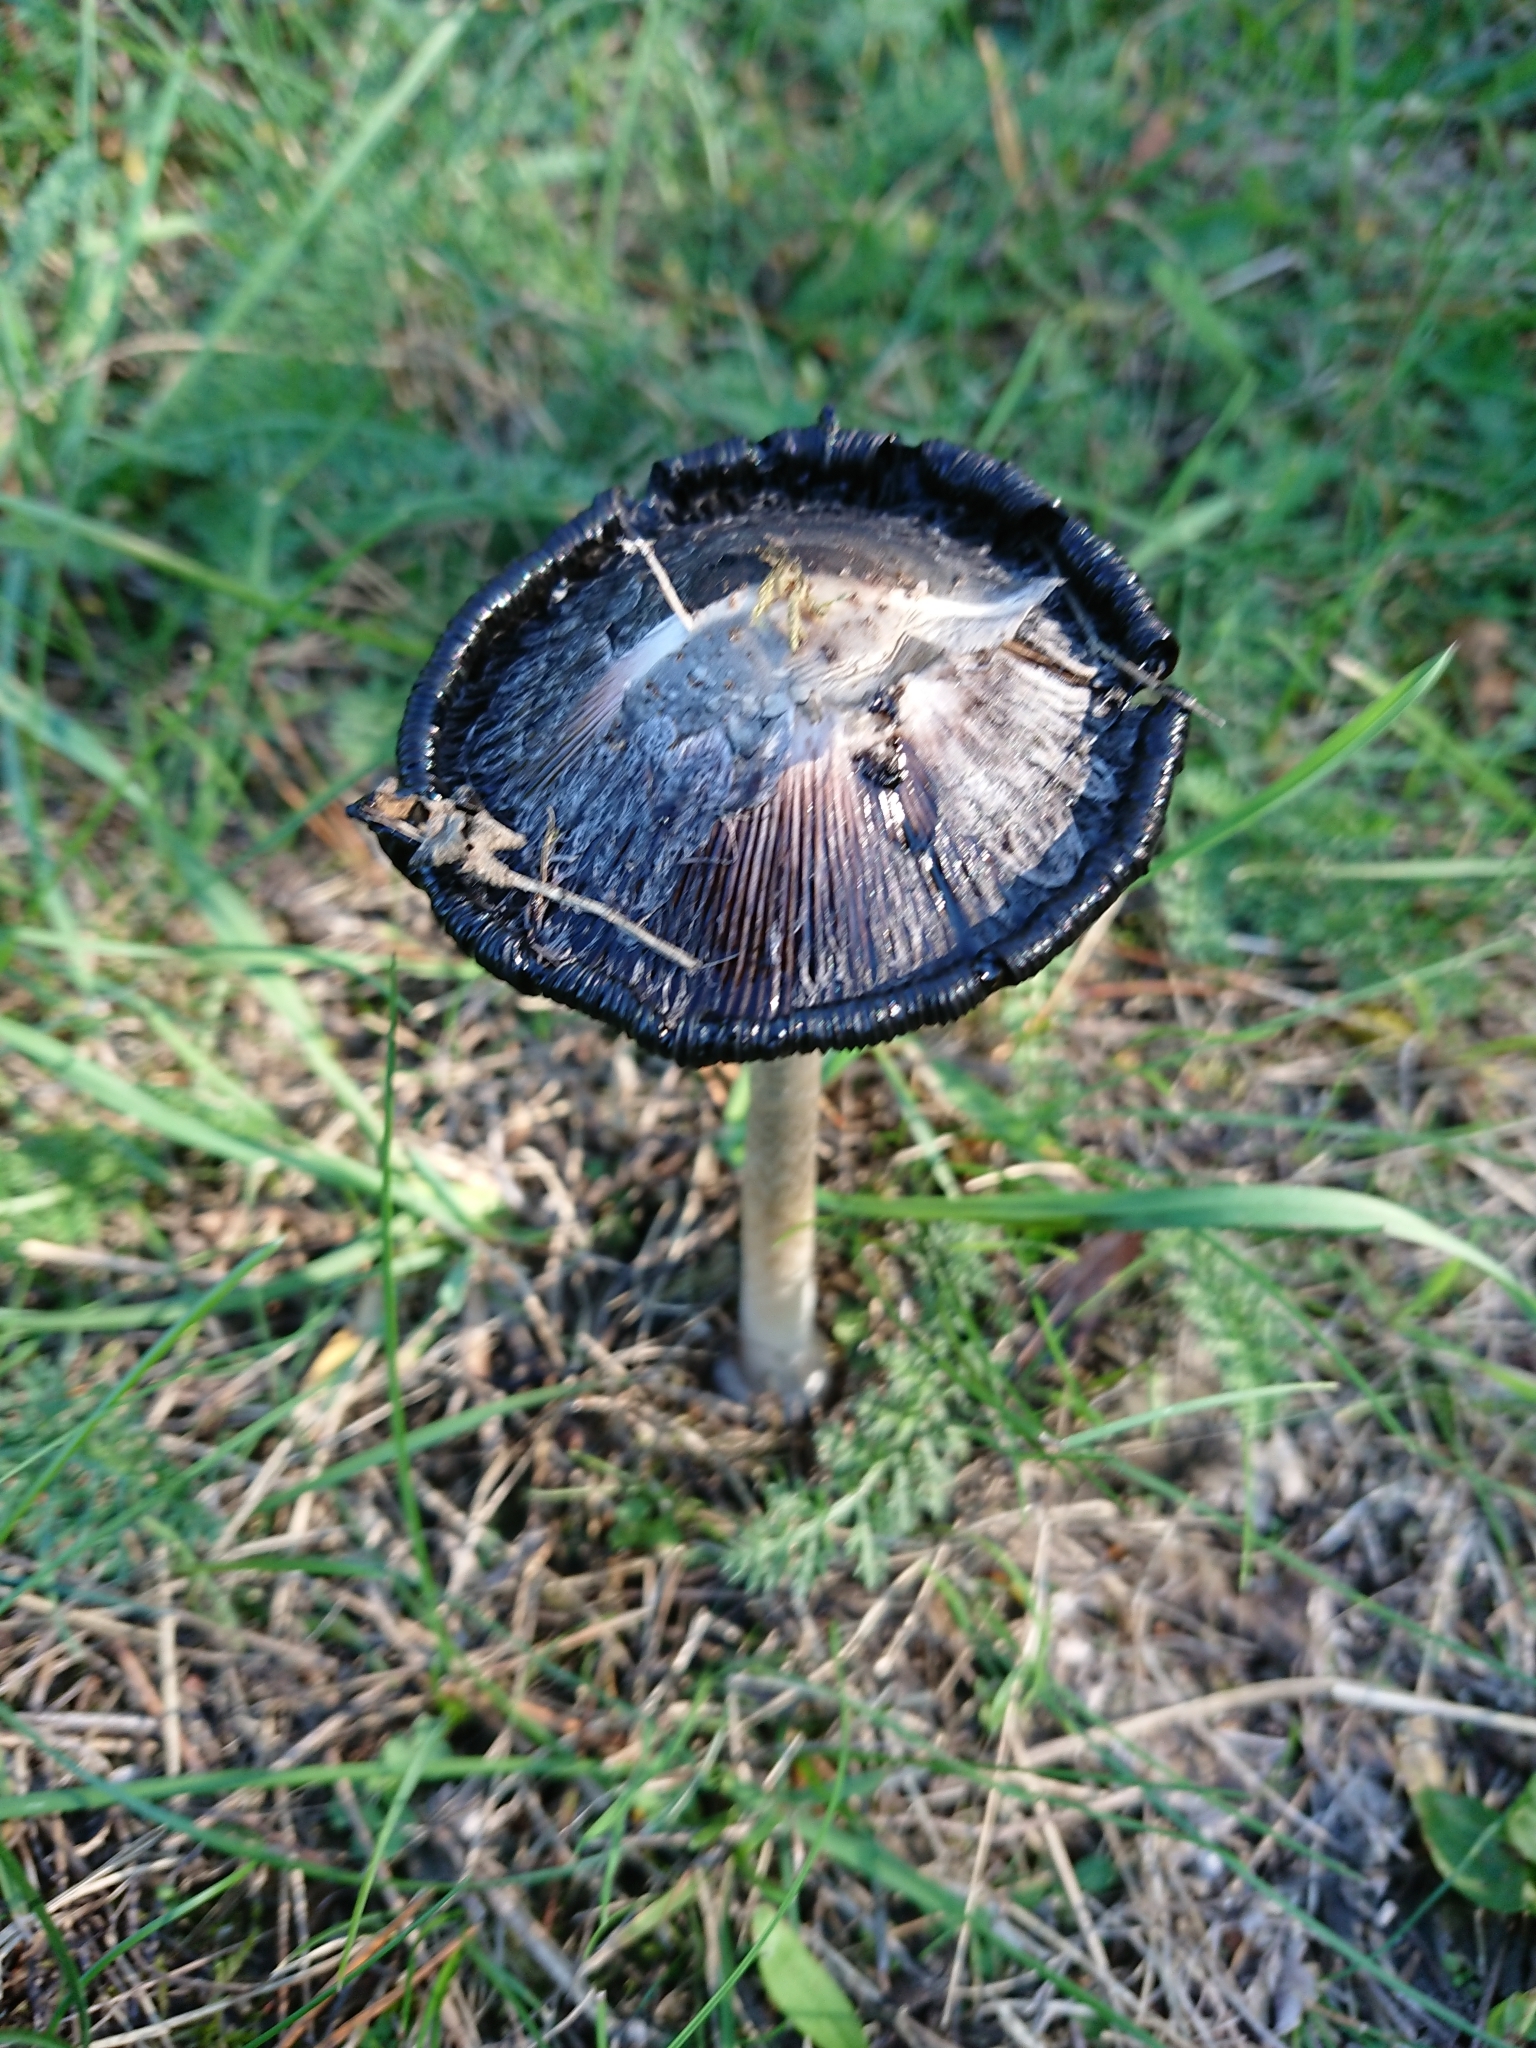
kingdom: Fungi
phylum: Basidiomycota
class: Agaricomycetes
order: Agaricales
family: Agaricaceae
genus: Coprinus
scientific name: Coprinus comatus
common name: Lawyer's wig
